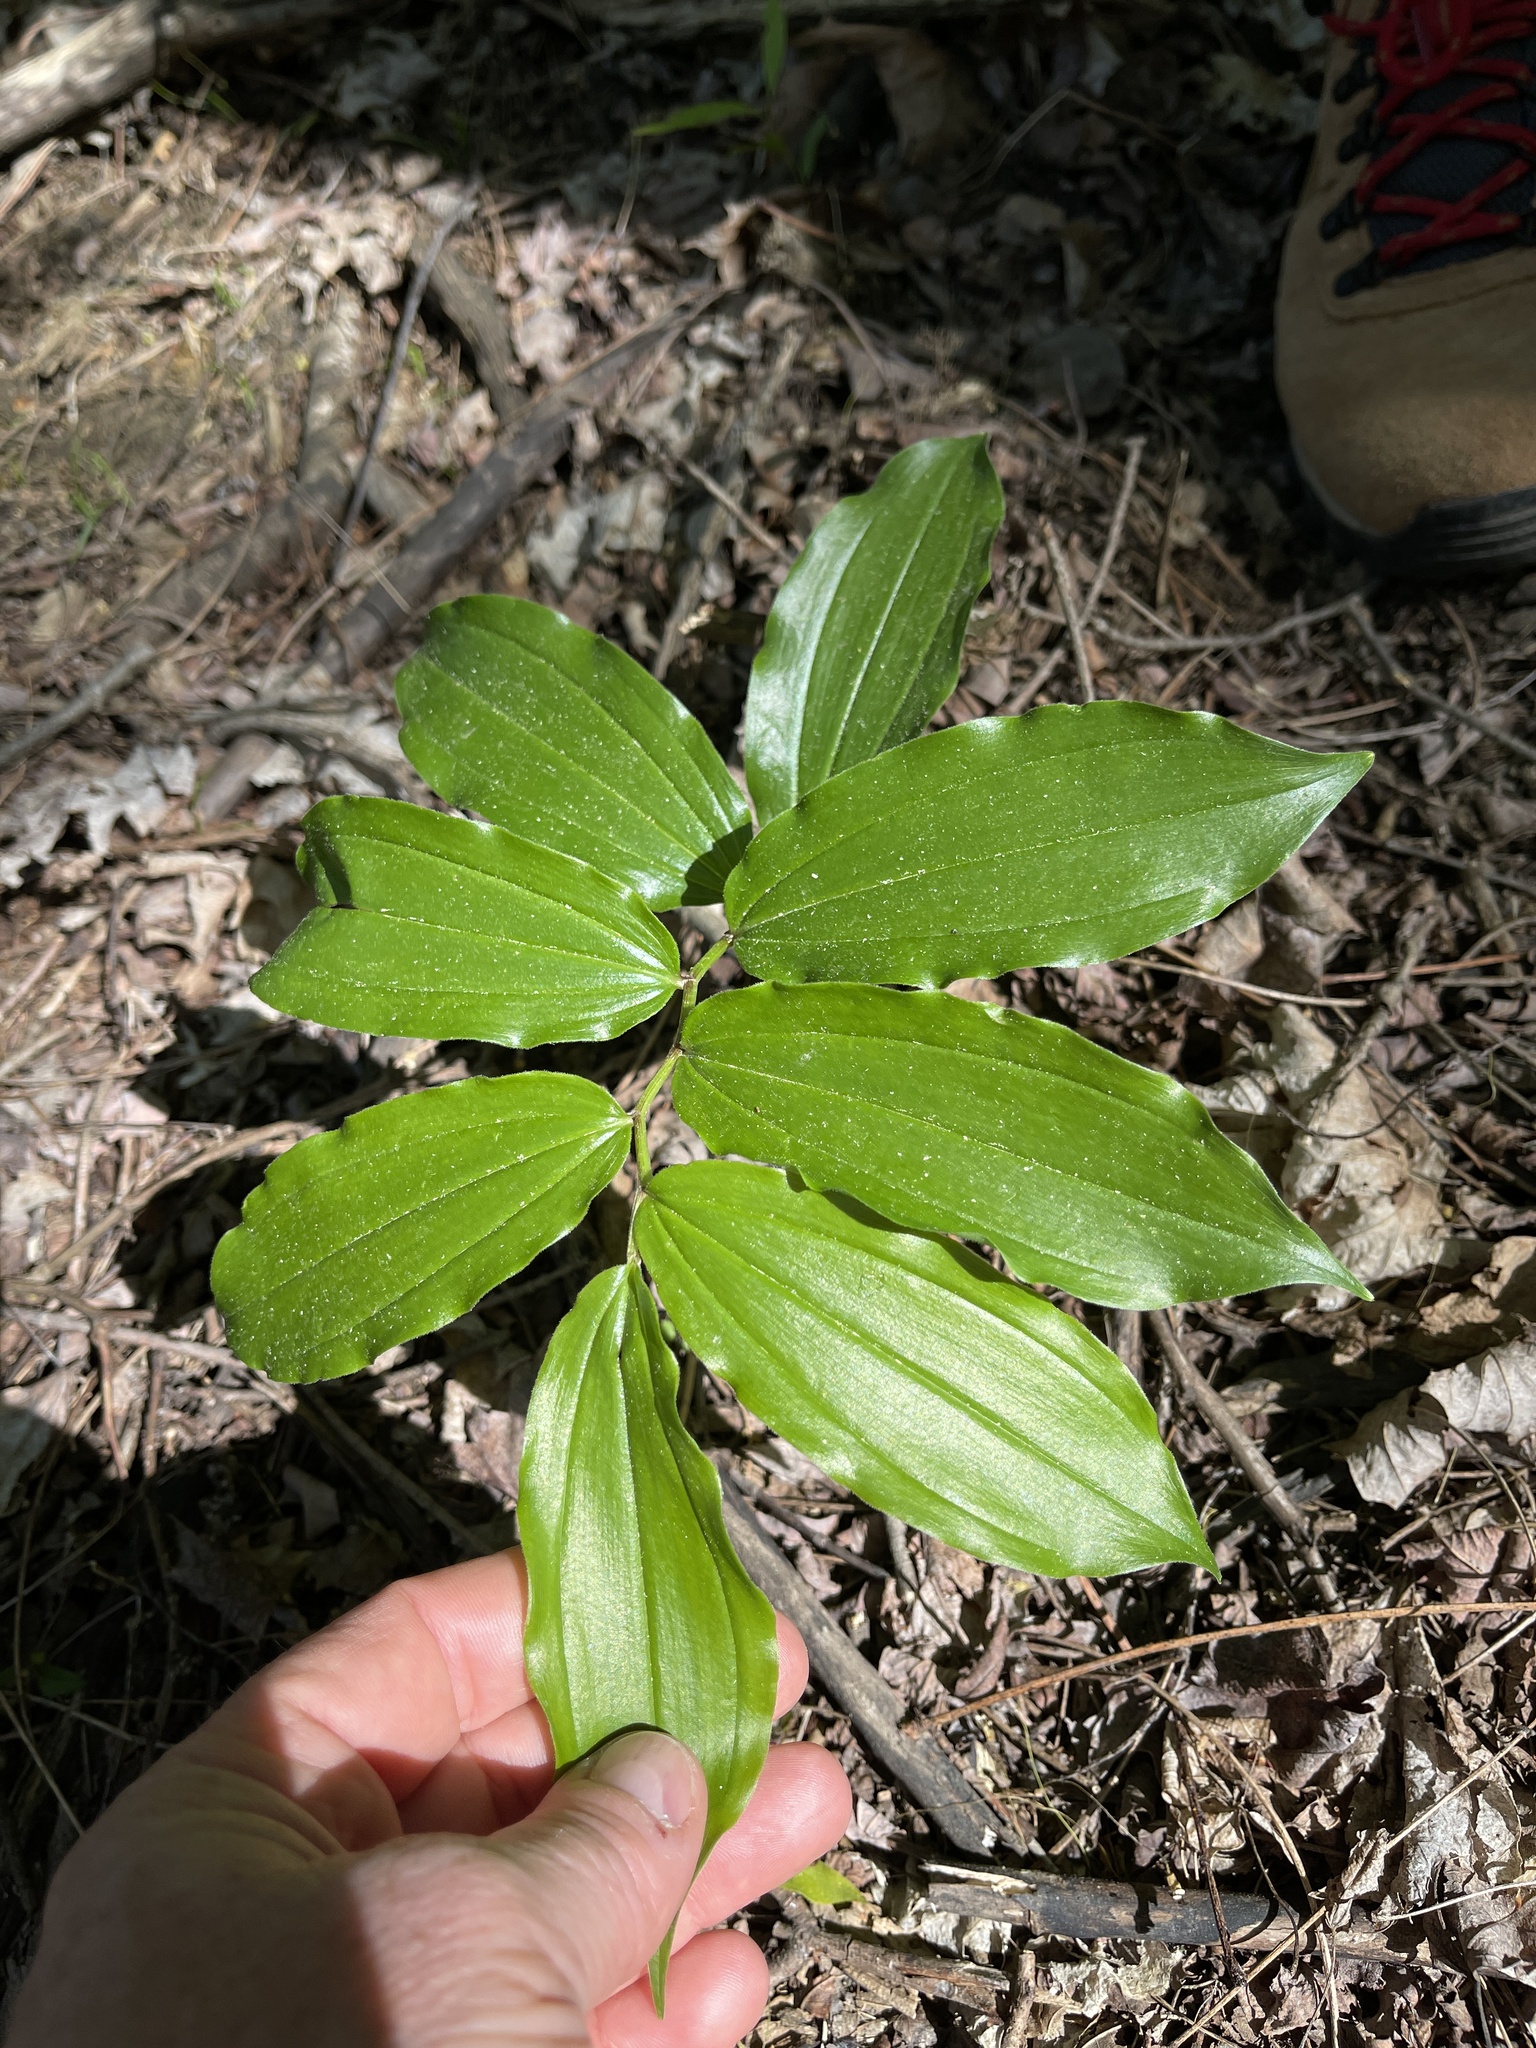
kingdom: Plantae
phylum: Tracheophyta
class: Liliopsida
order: Asparagales
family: Asparagaceae
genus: Maianthemum
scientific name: Maianthemum racemosum
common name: False spikenard
